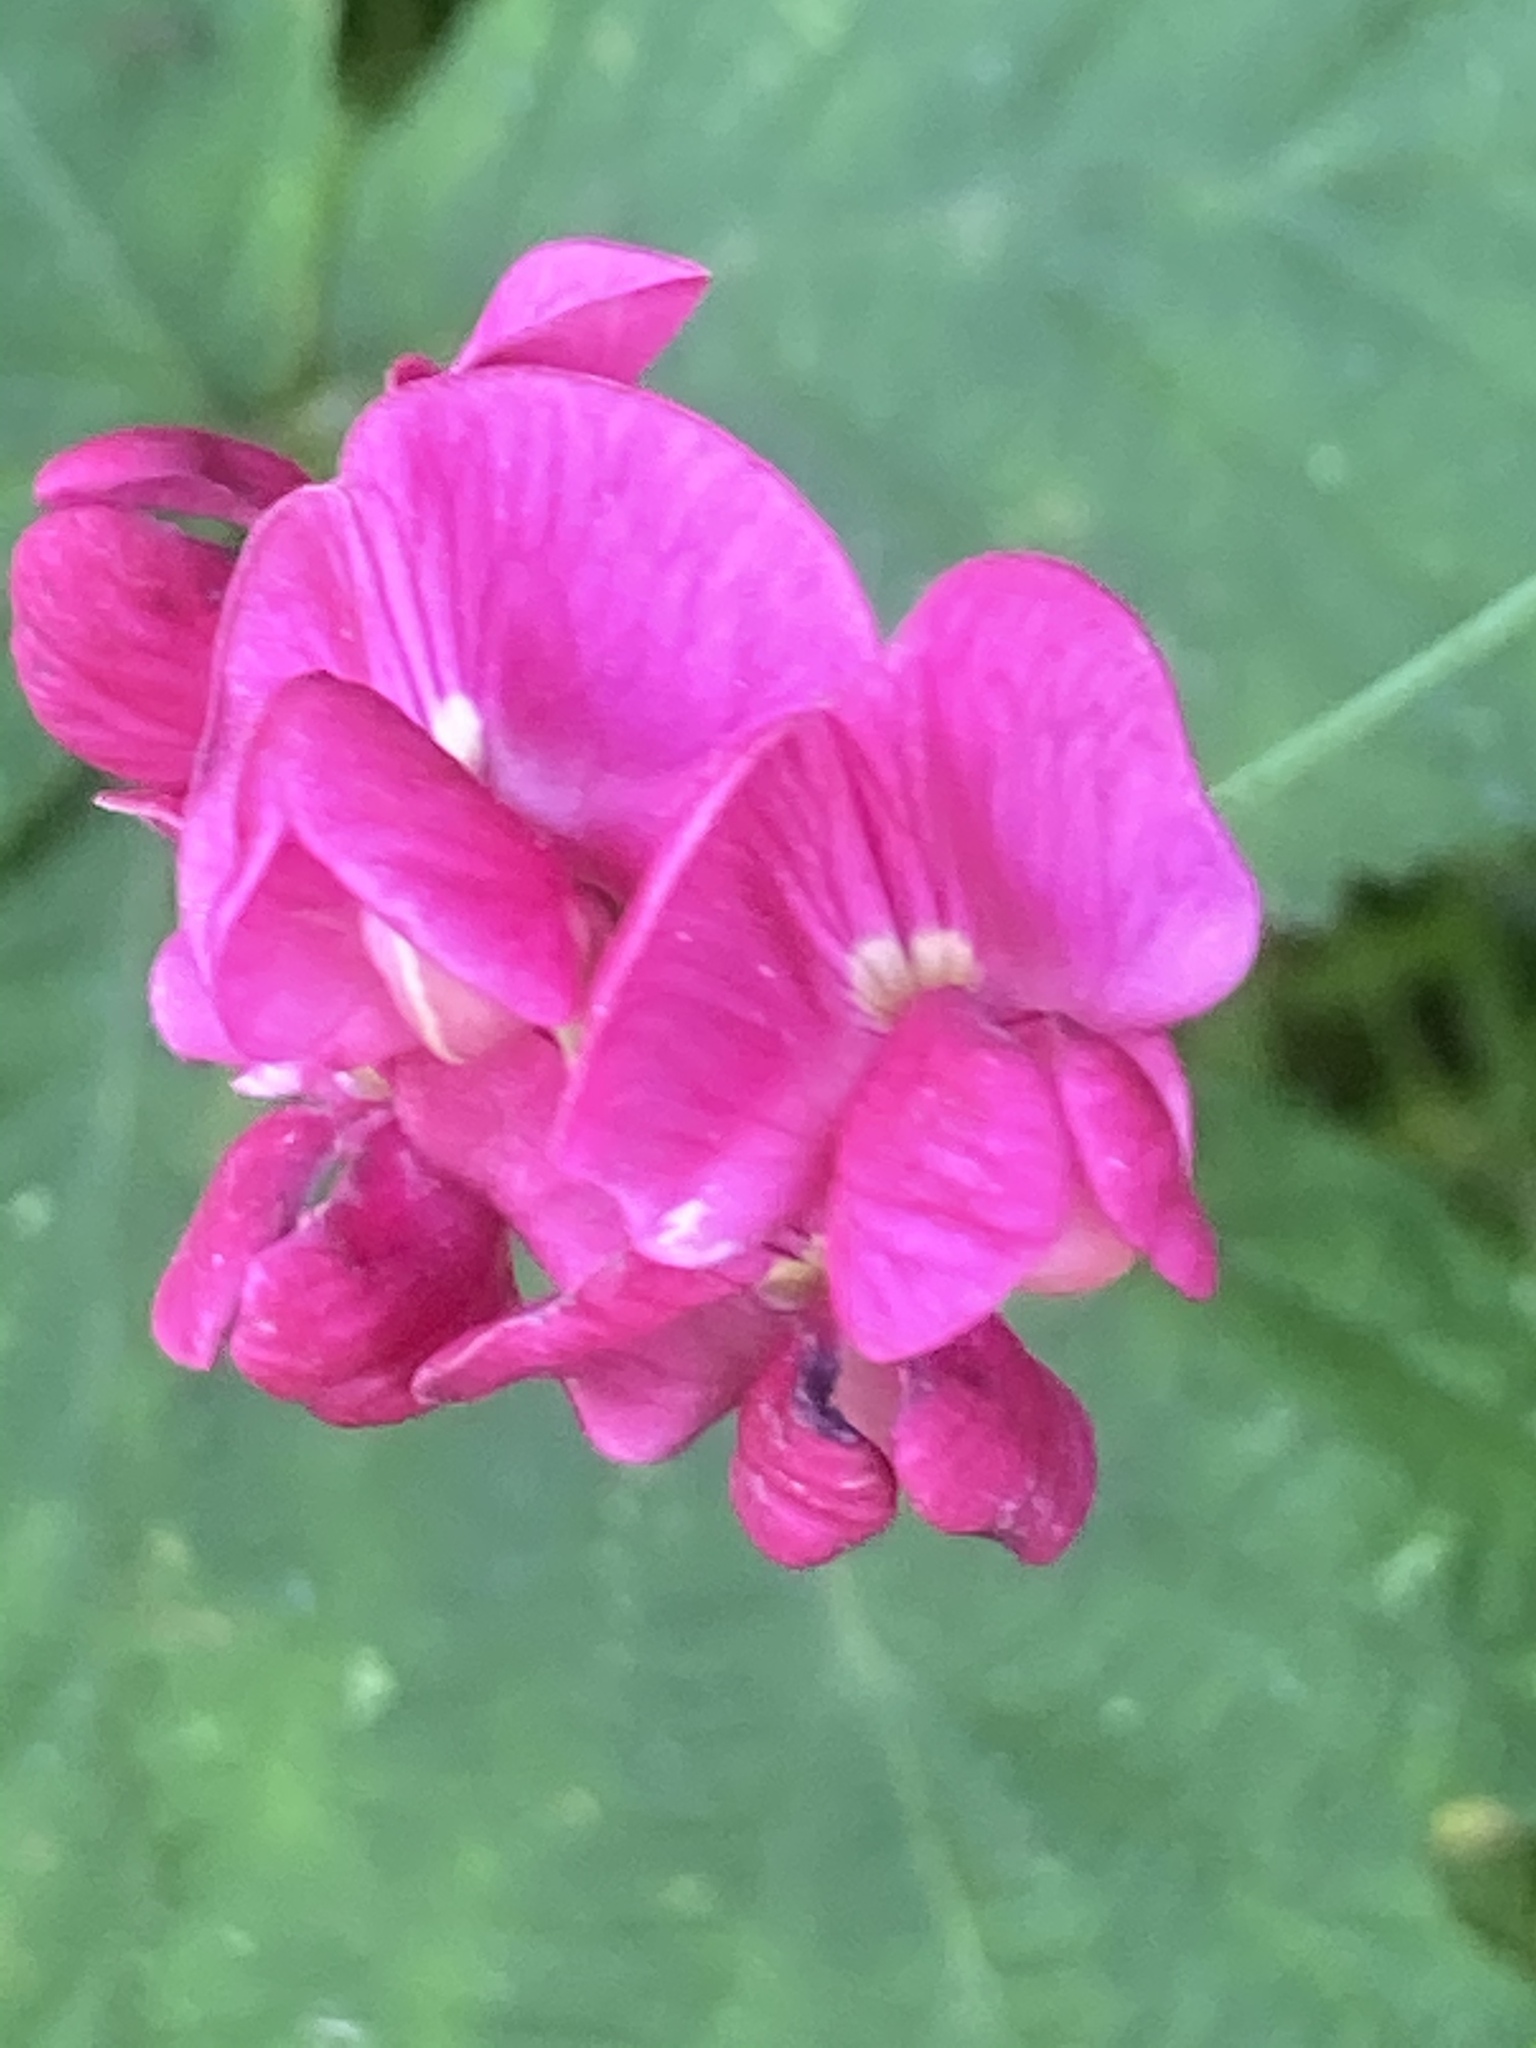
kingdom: Plantae
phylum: Tracheophyta
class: Magnoliopsida
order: Fabales
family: Fabaceae
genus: Lathyrus
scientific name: Lathyrus tuberosus
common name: Tuberous pea
